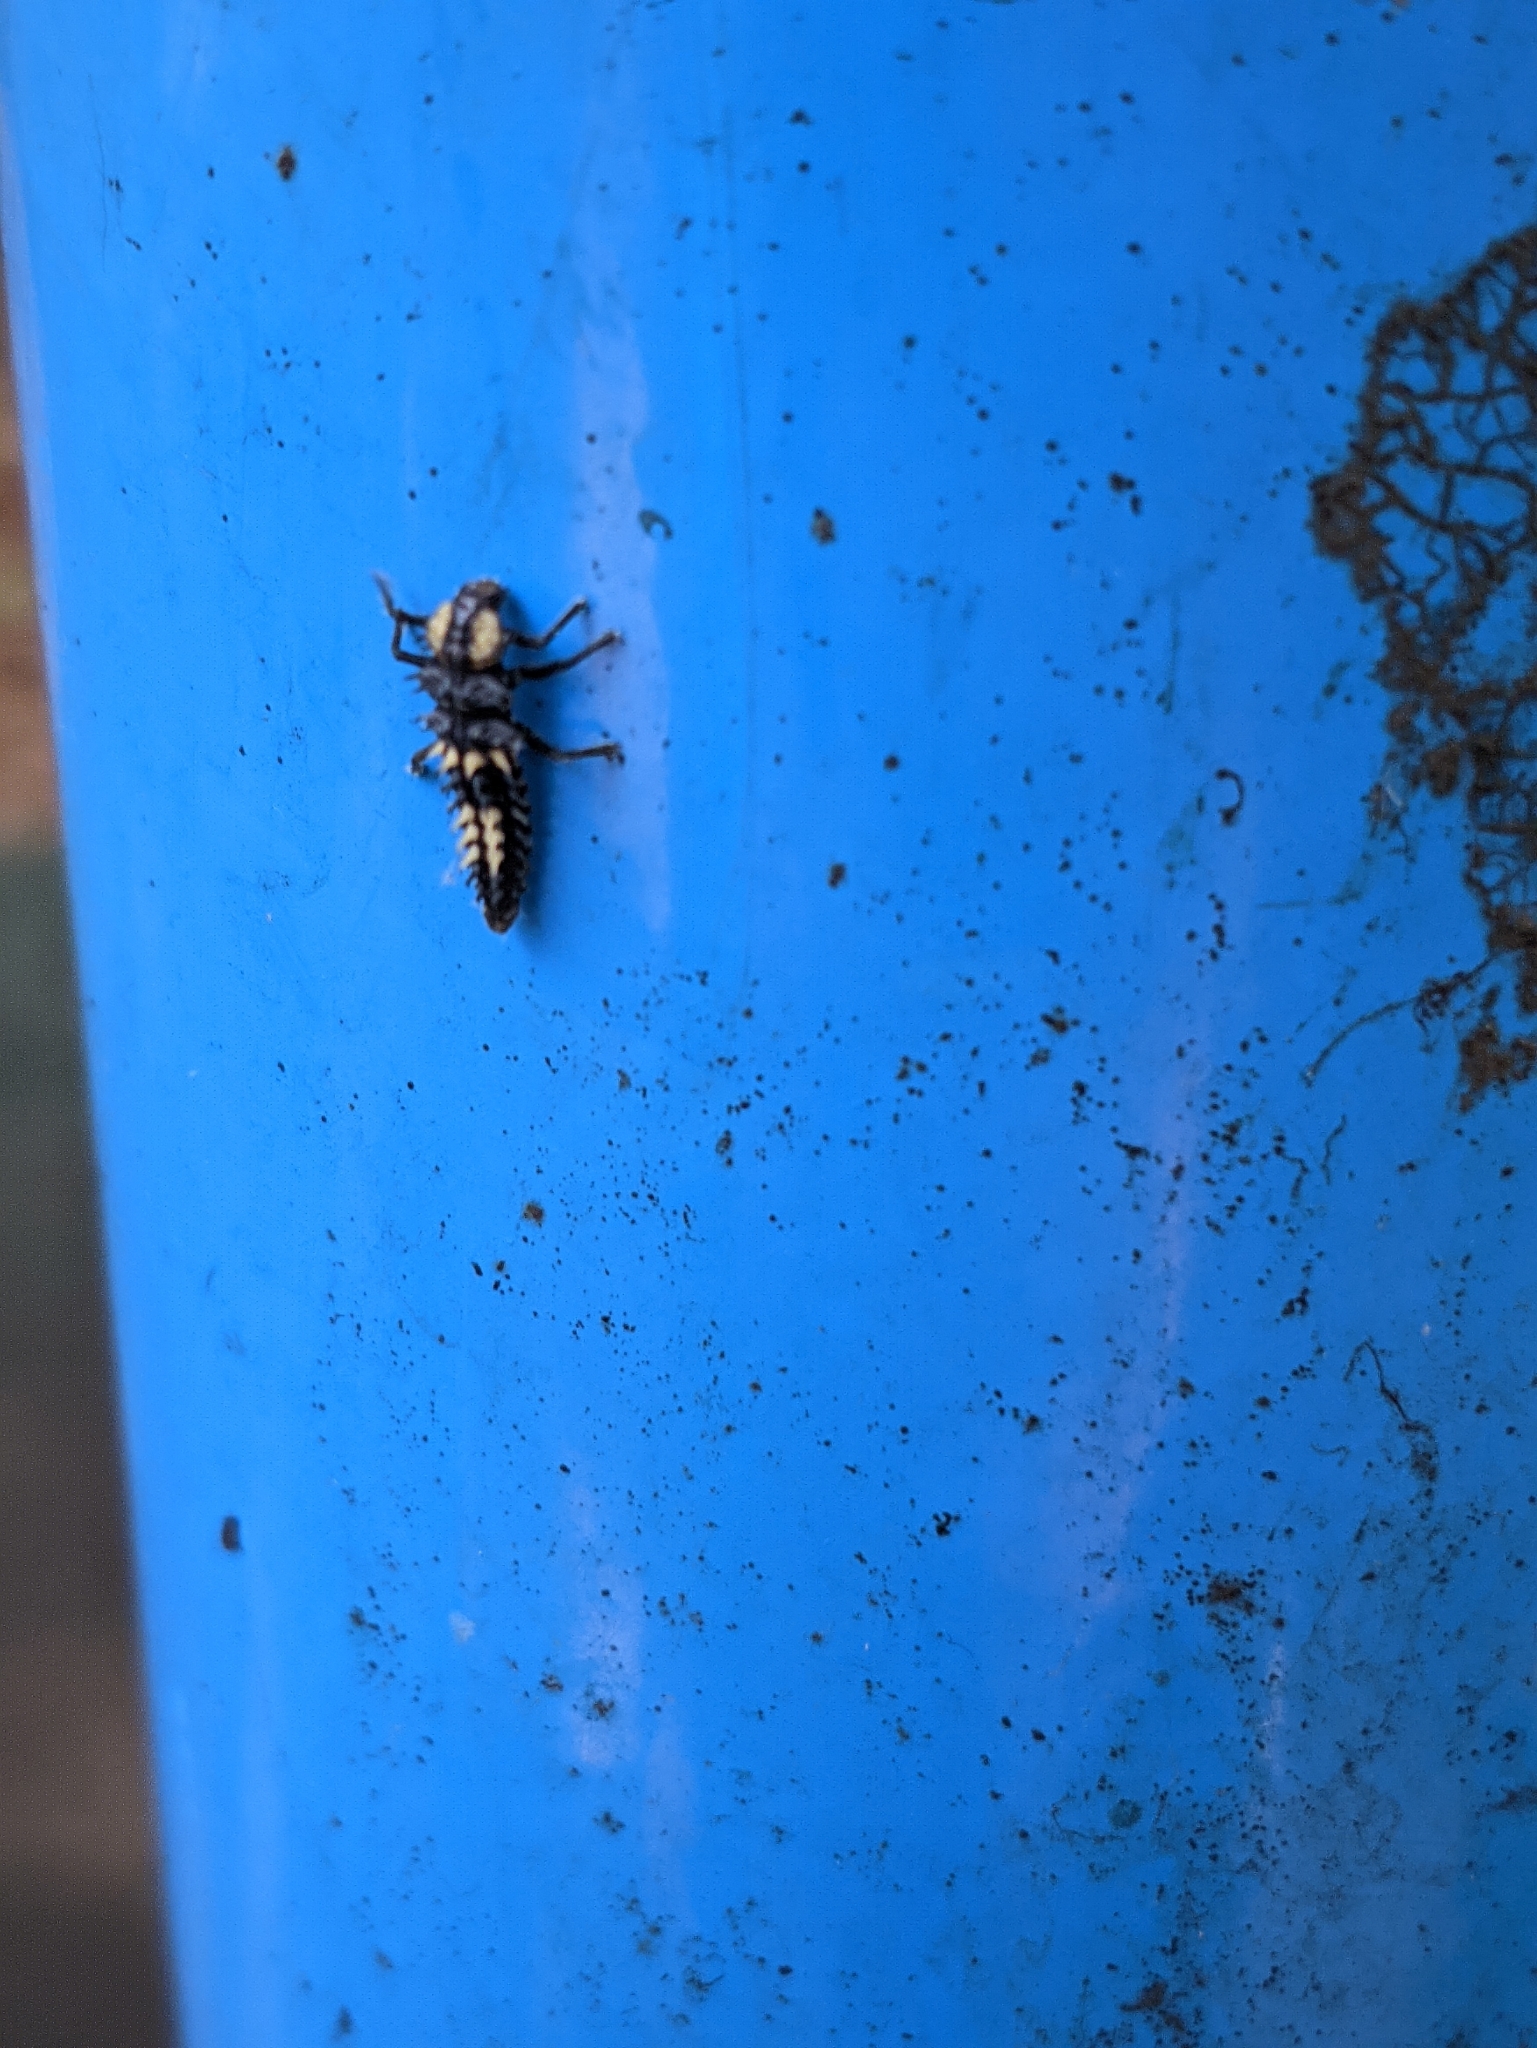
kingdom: Animalia
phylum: Arthropoda
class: Insecta
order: Coleoptera
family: Coccinellidae
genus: Harmonia
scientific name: Harmonia
